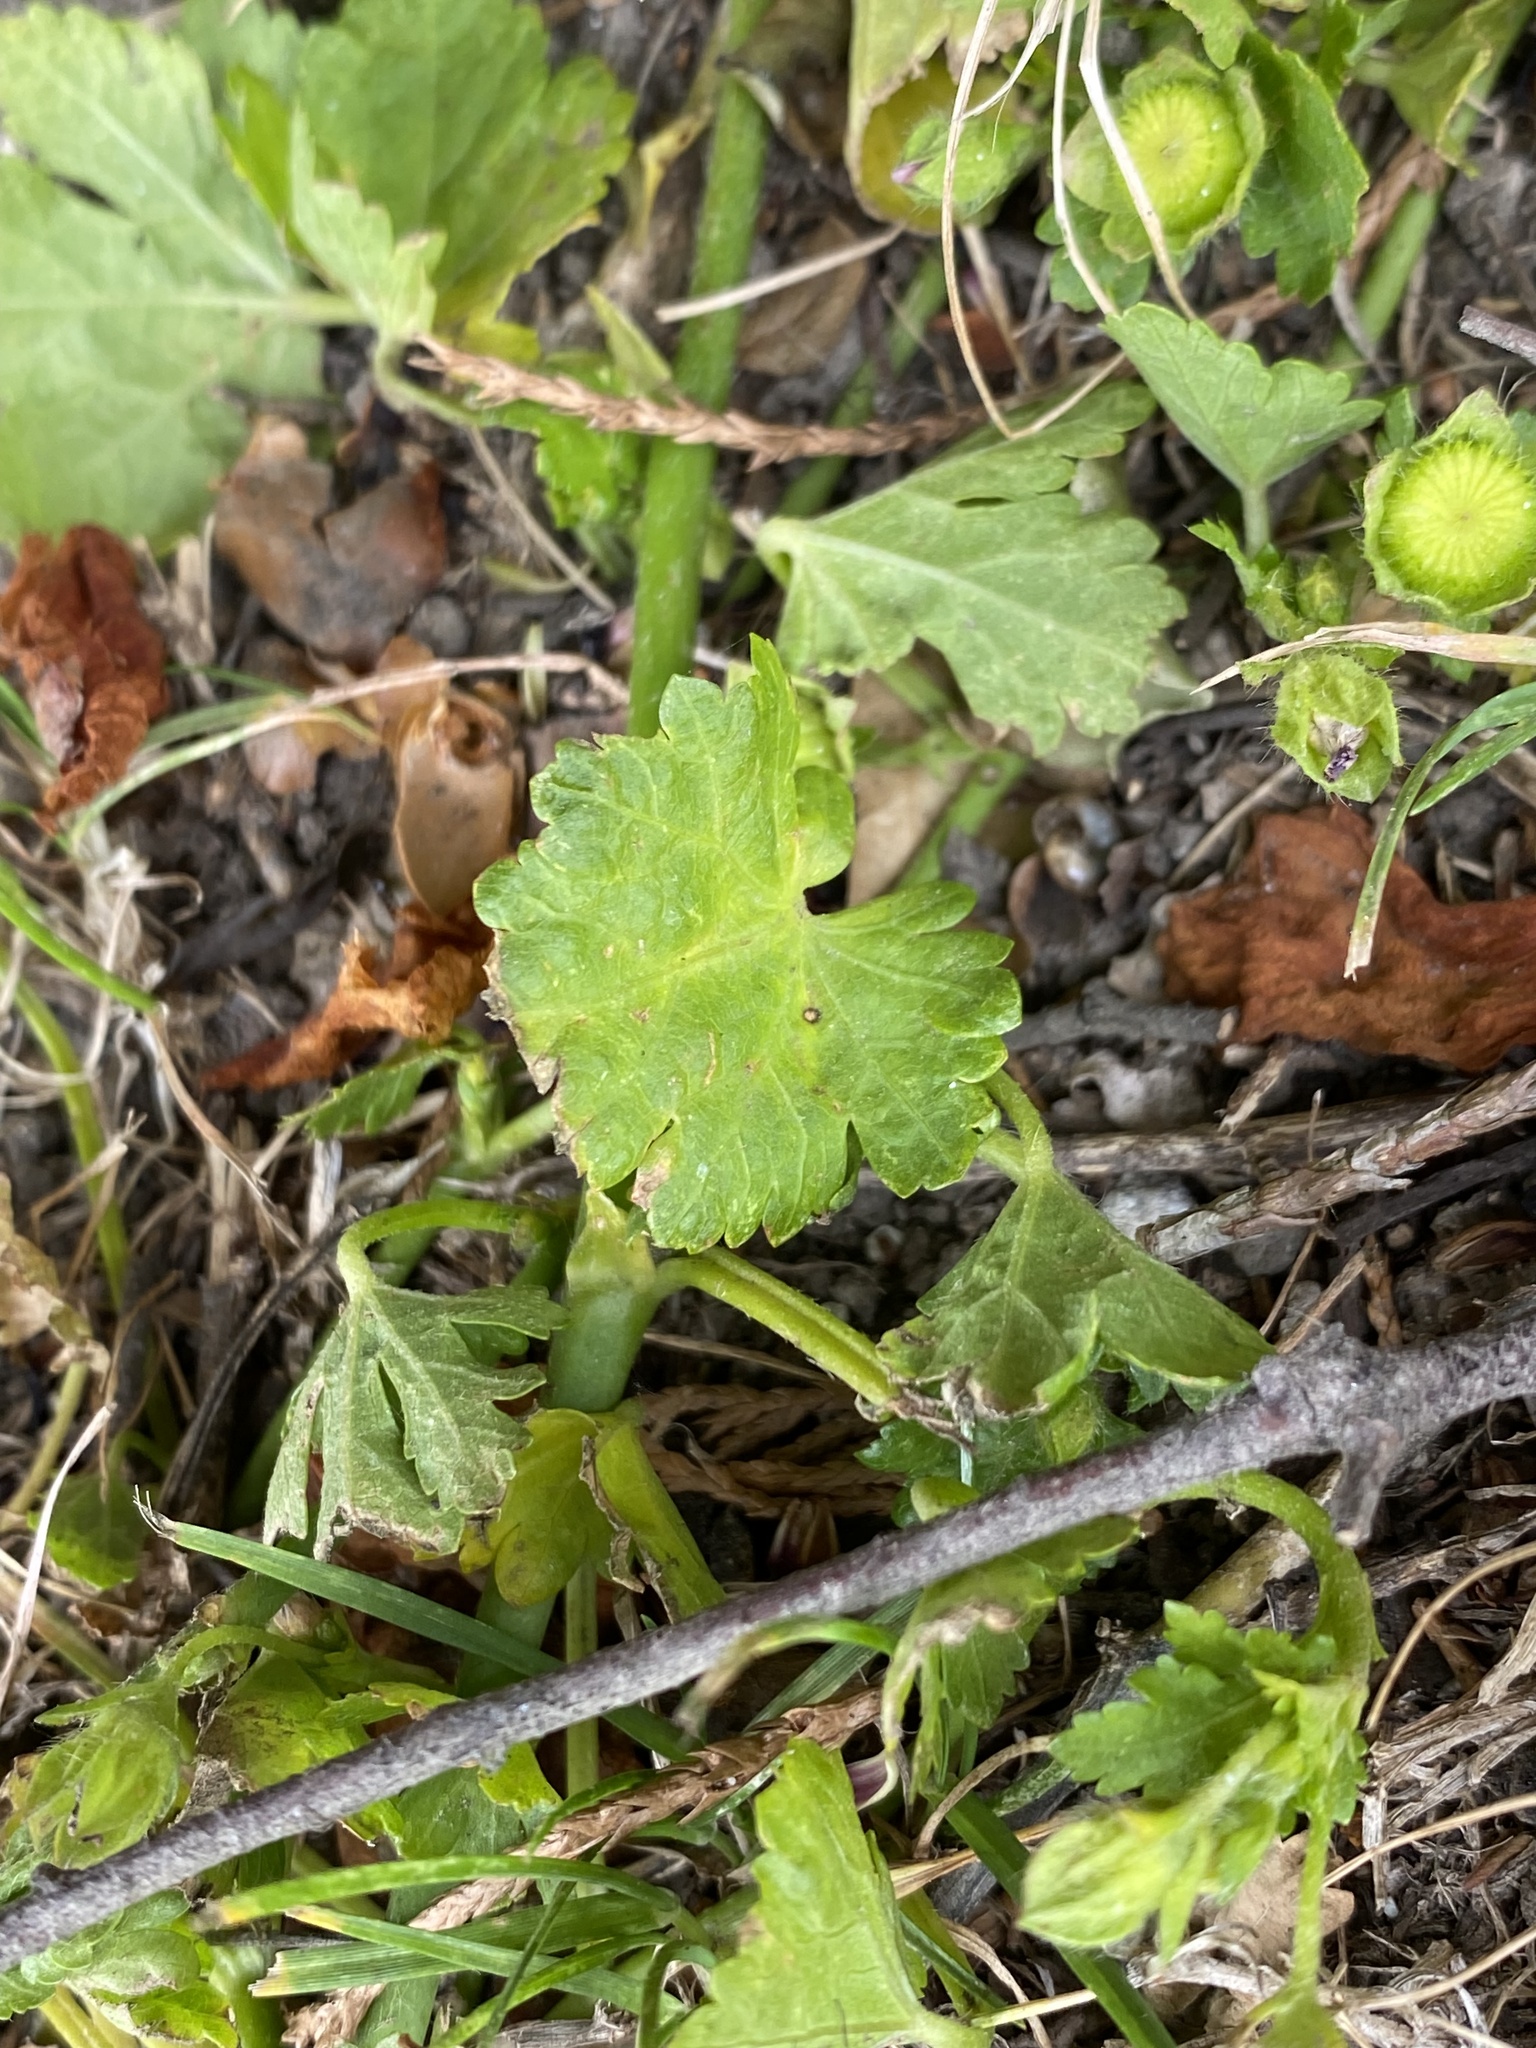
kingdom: Plantae
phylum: Tracheophyta
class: Magnoliopsida
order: Malvales
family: Malvaceae
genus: Modiola
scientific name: Modiola caroliniana
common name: Carolina bristlemallow
